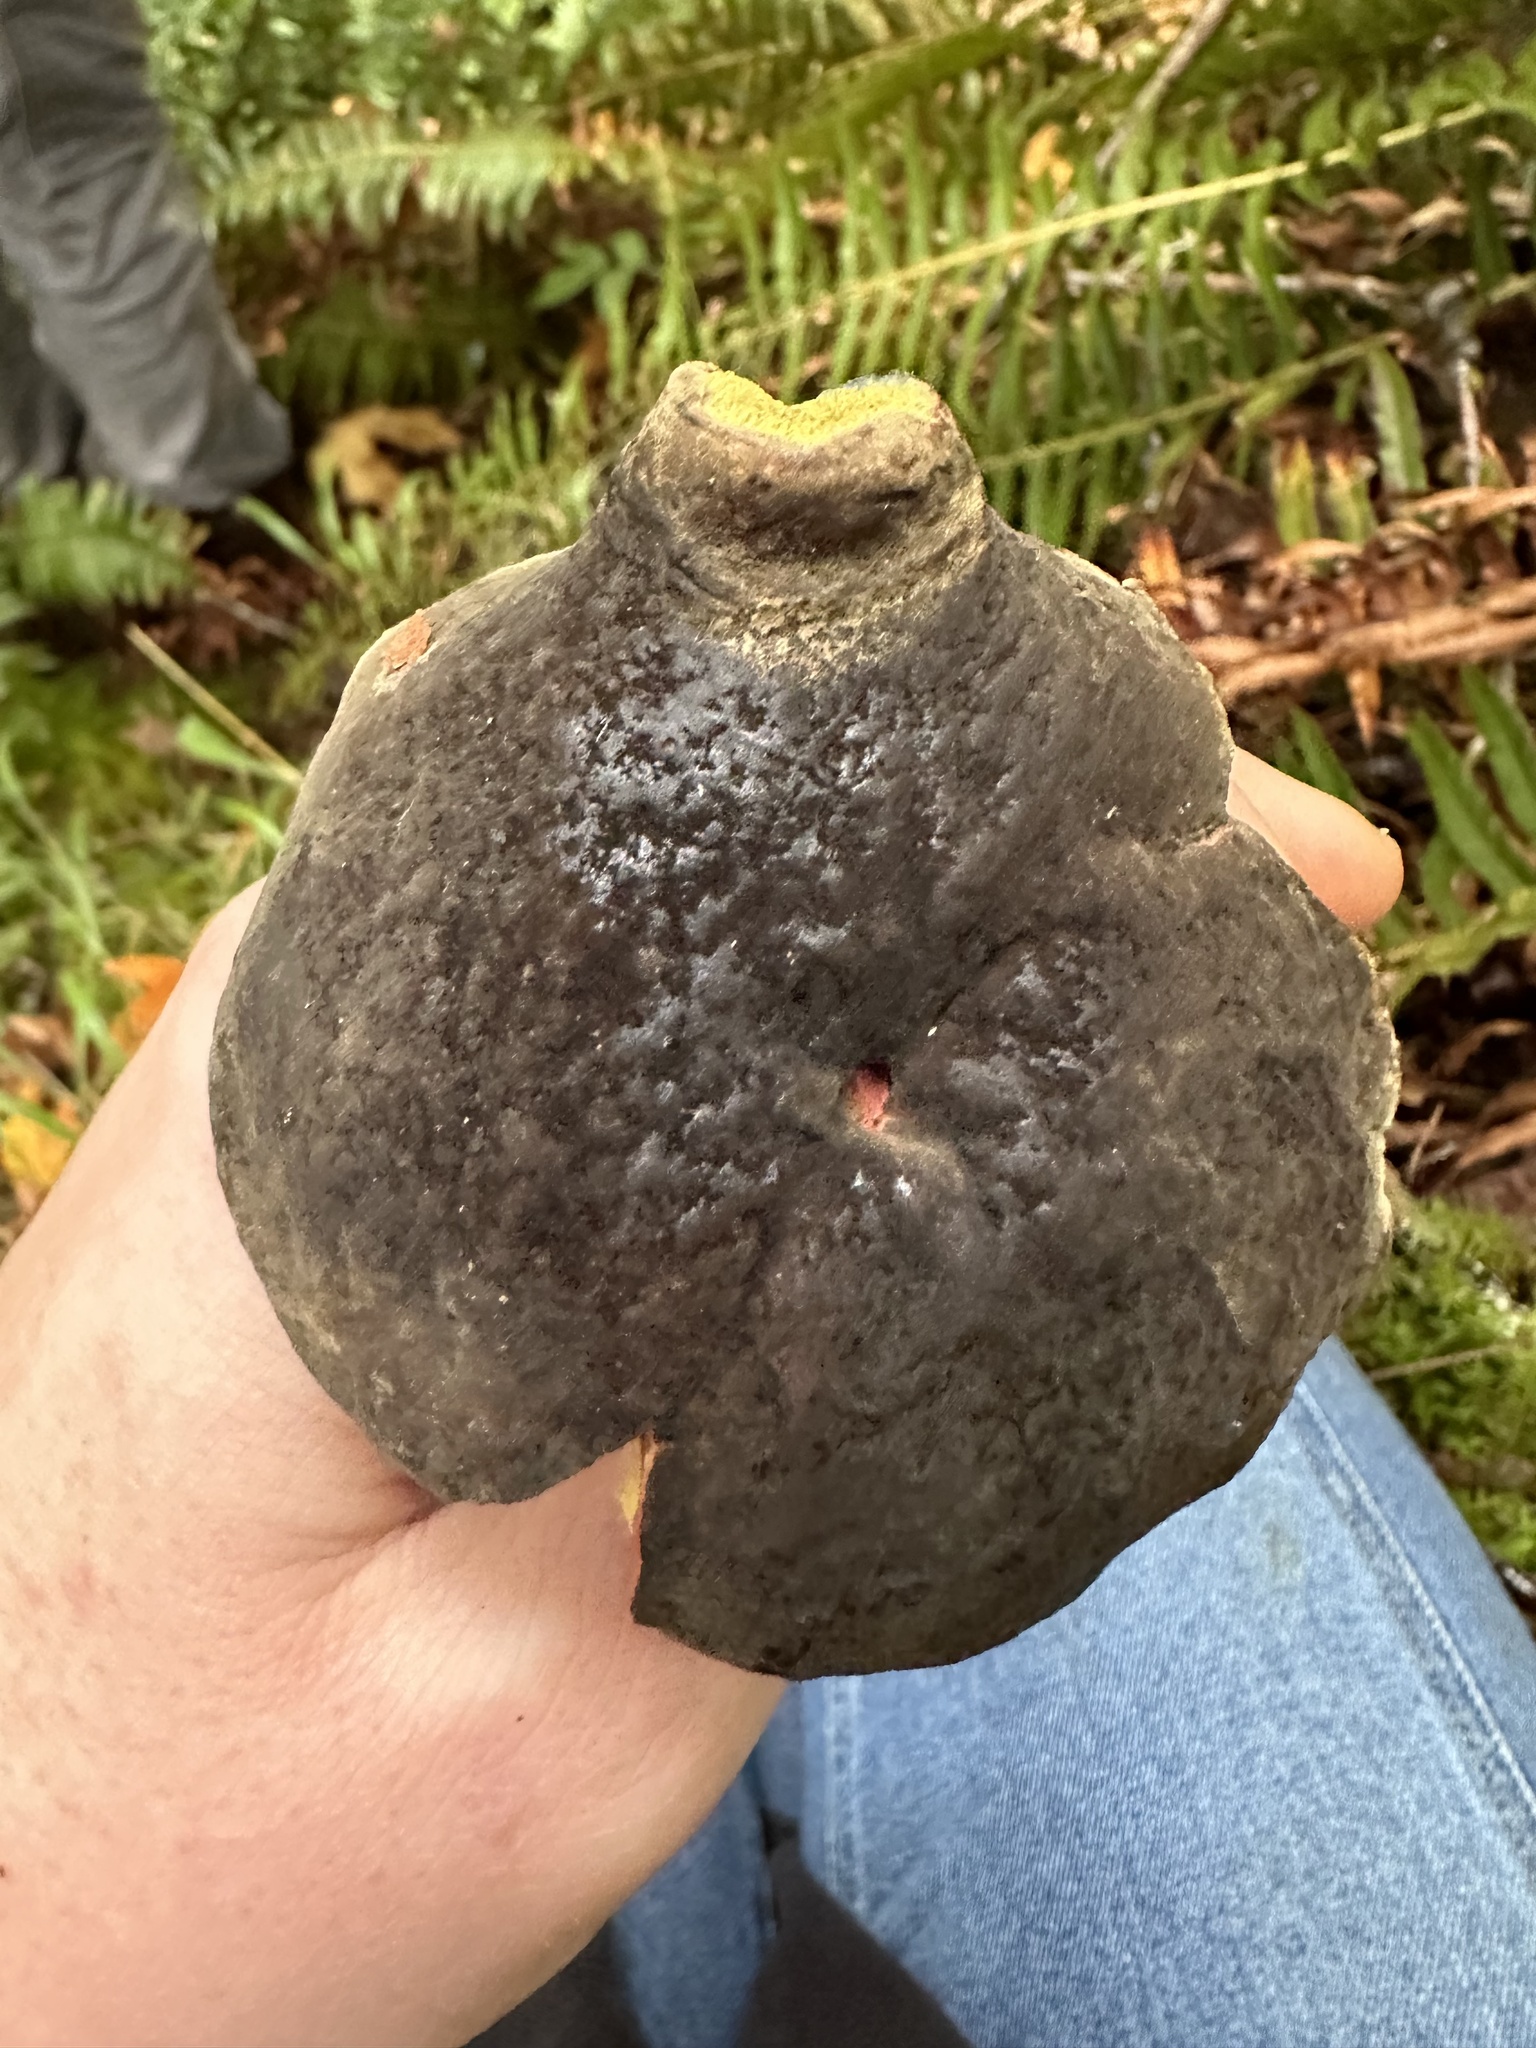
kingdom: Fungi
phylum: Basidiomycota
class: Agaricomycetes
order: Boletales
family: Boletaceae
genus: Xerocomellus
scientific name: Xerocomellus mendocinensis
